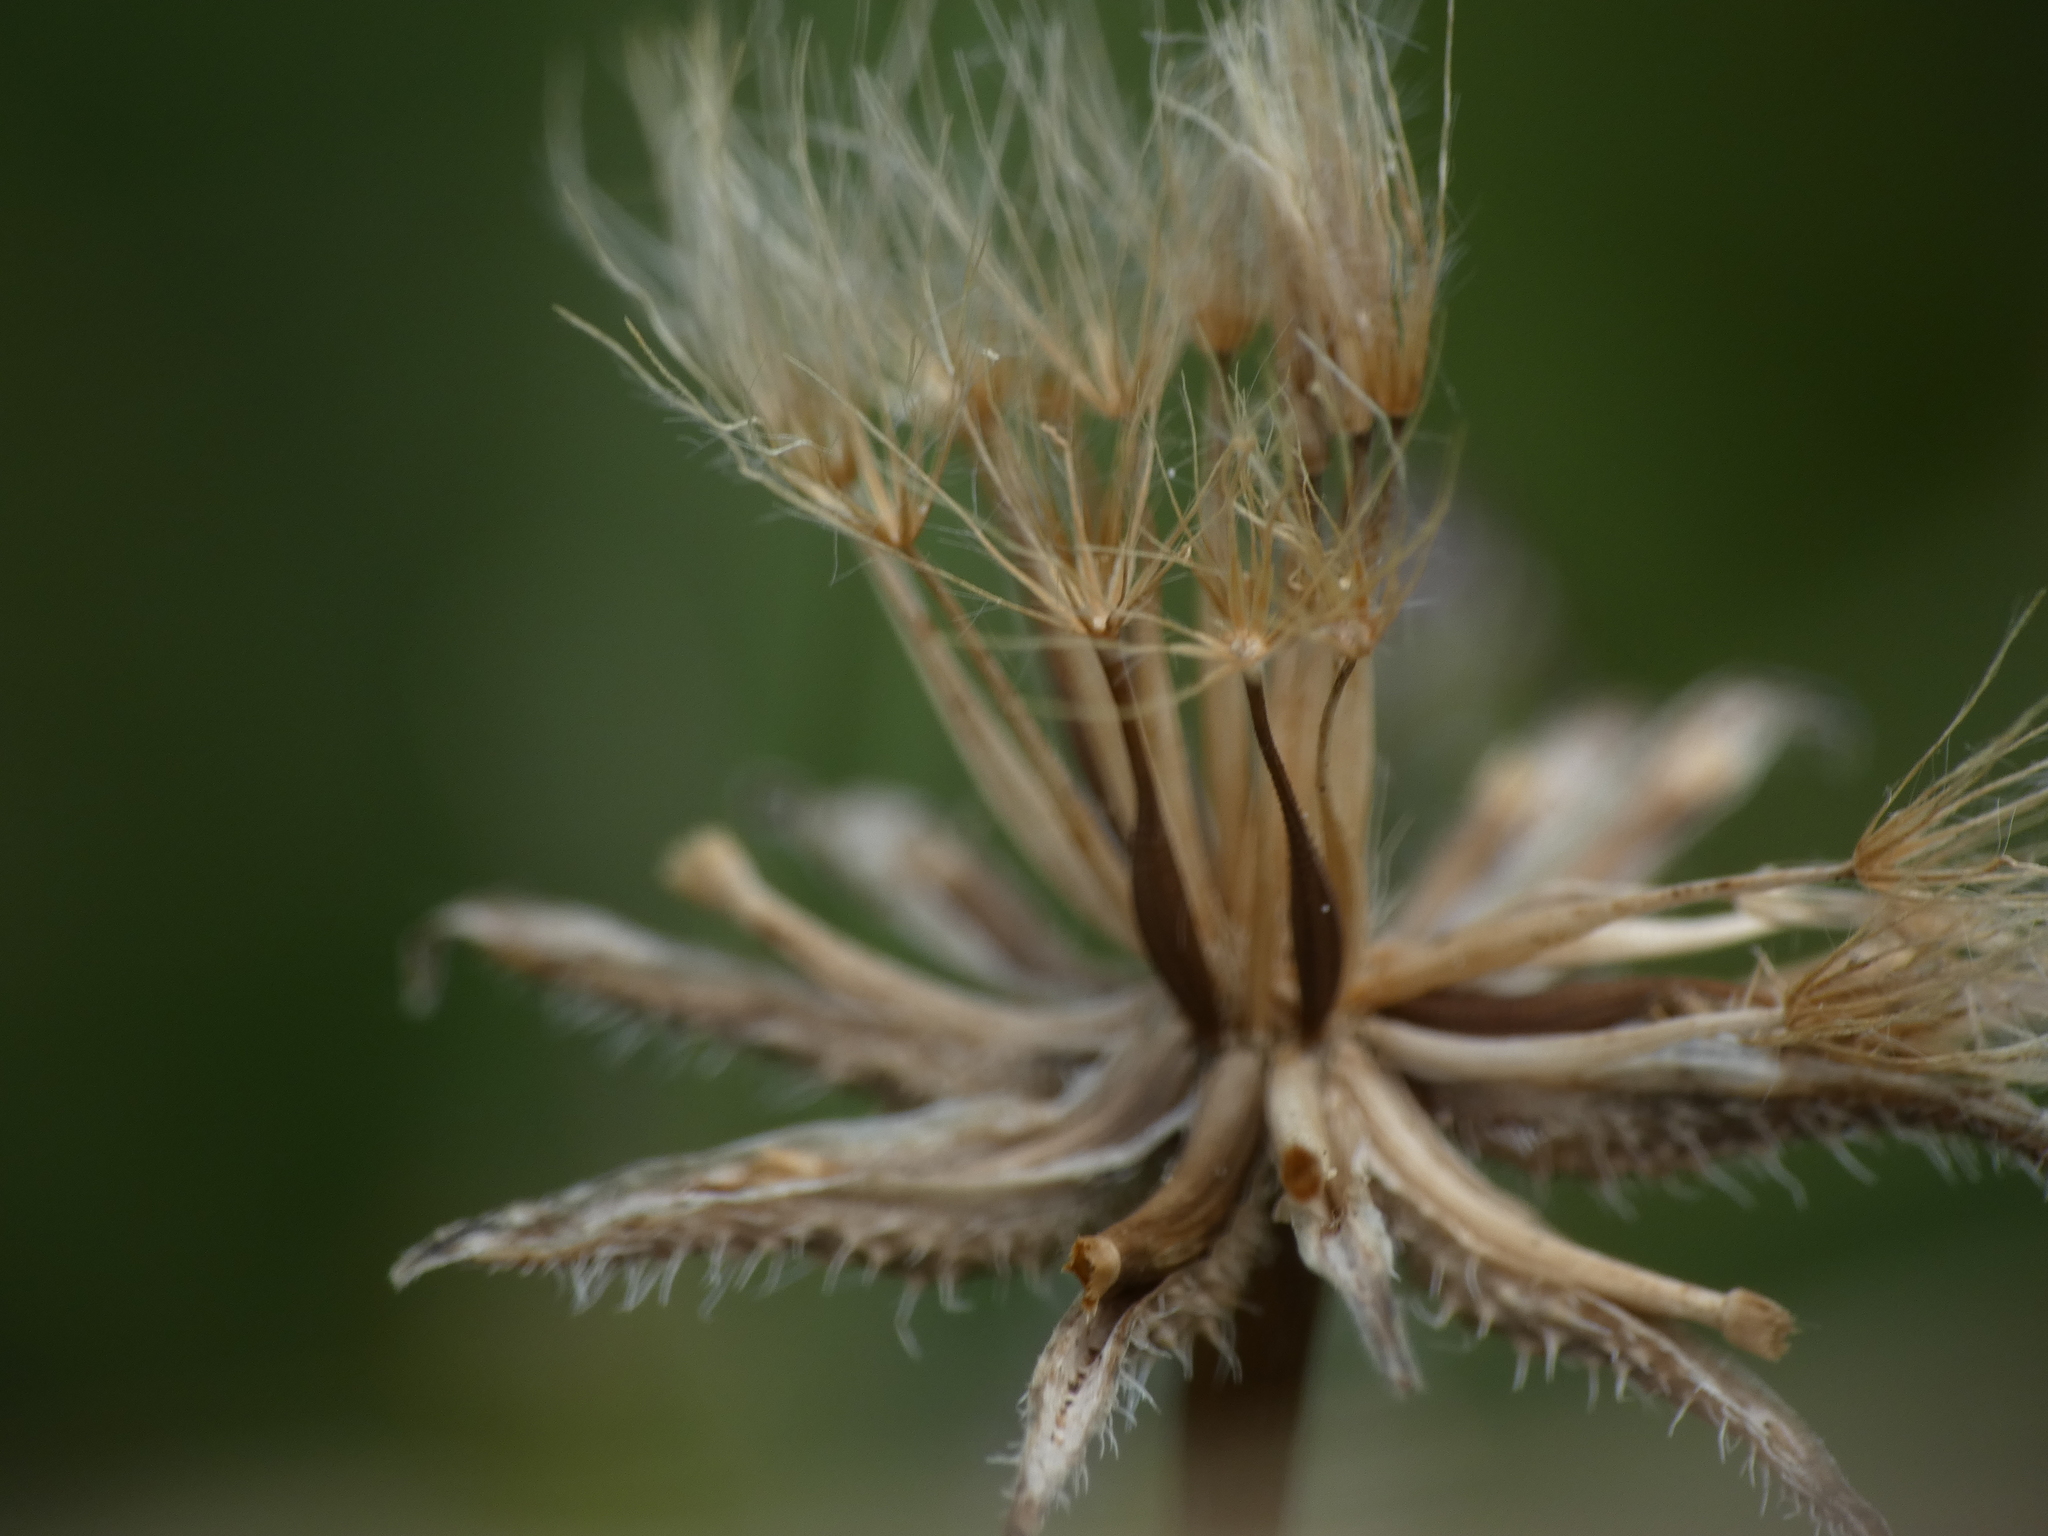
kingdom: Plantae
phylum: Tracheophyta
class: Magnoliopsida
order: Asterales
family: Asteraceae
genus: Hedypnois
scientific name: Hedypnois rhagadioloides
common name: Cretan weed
